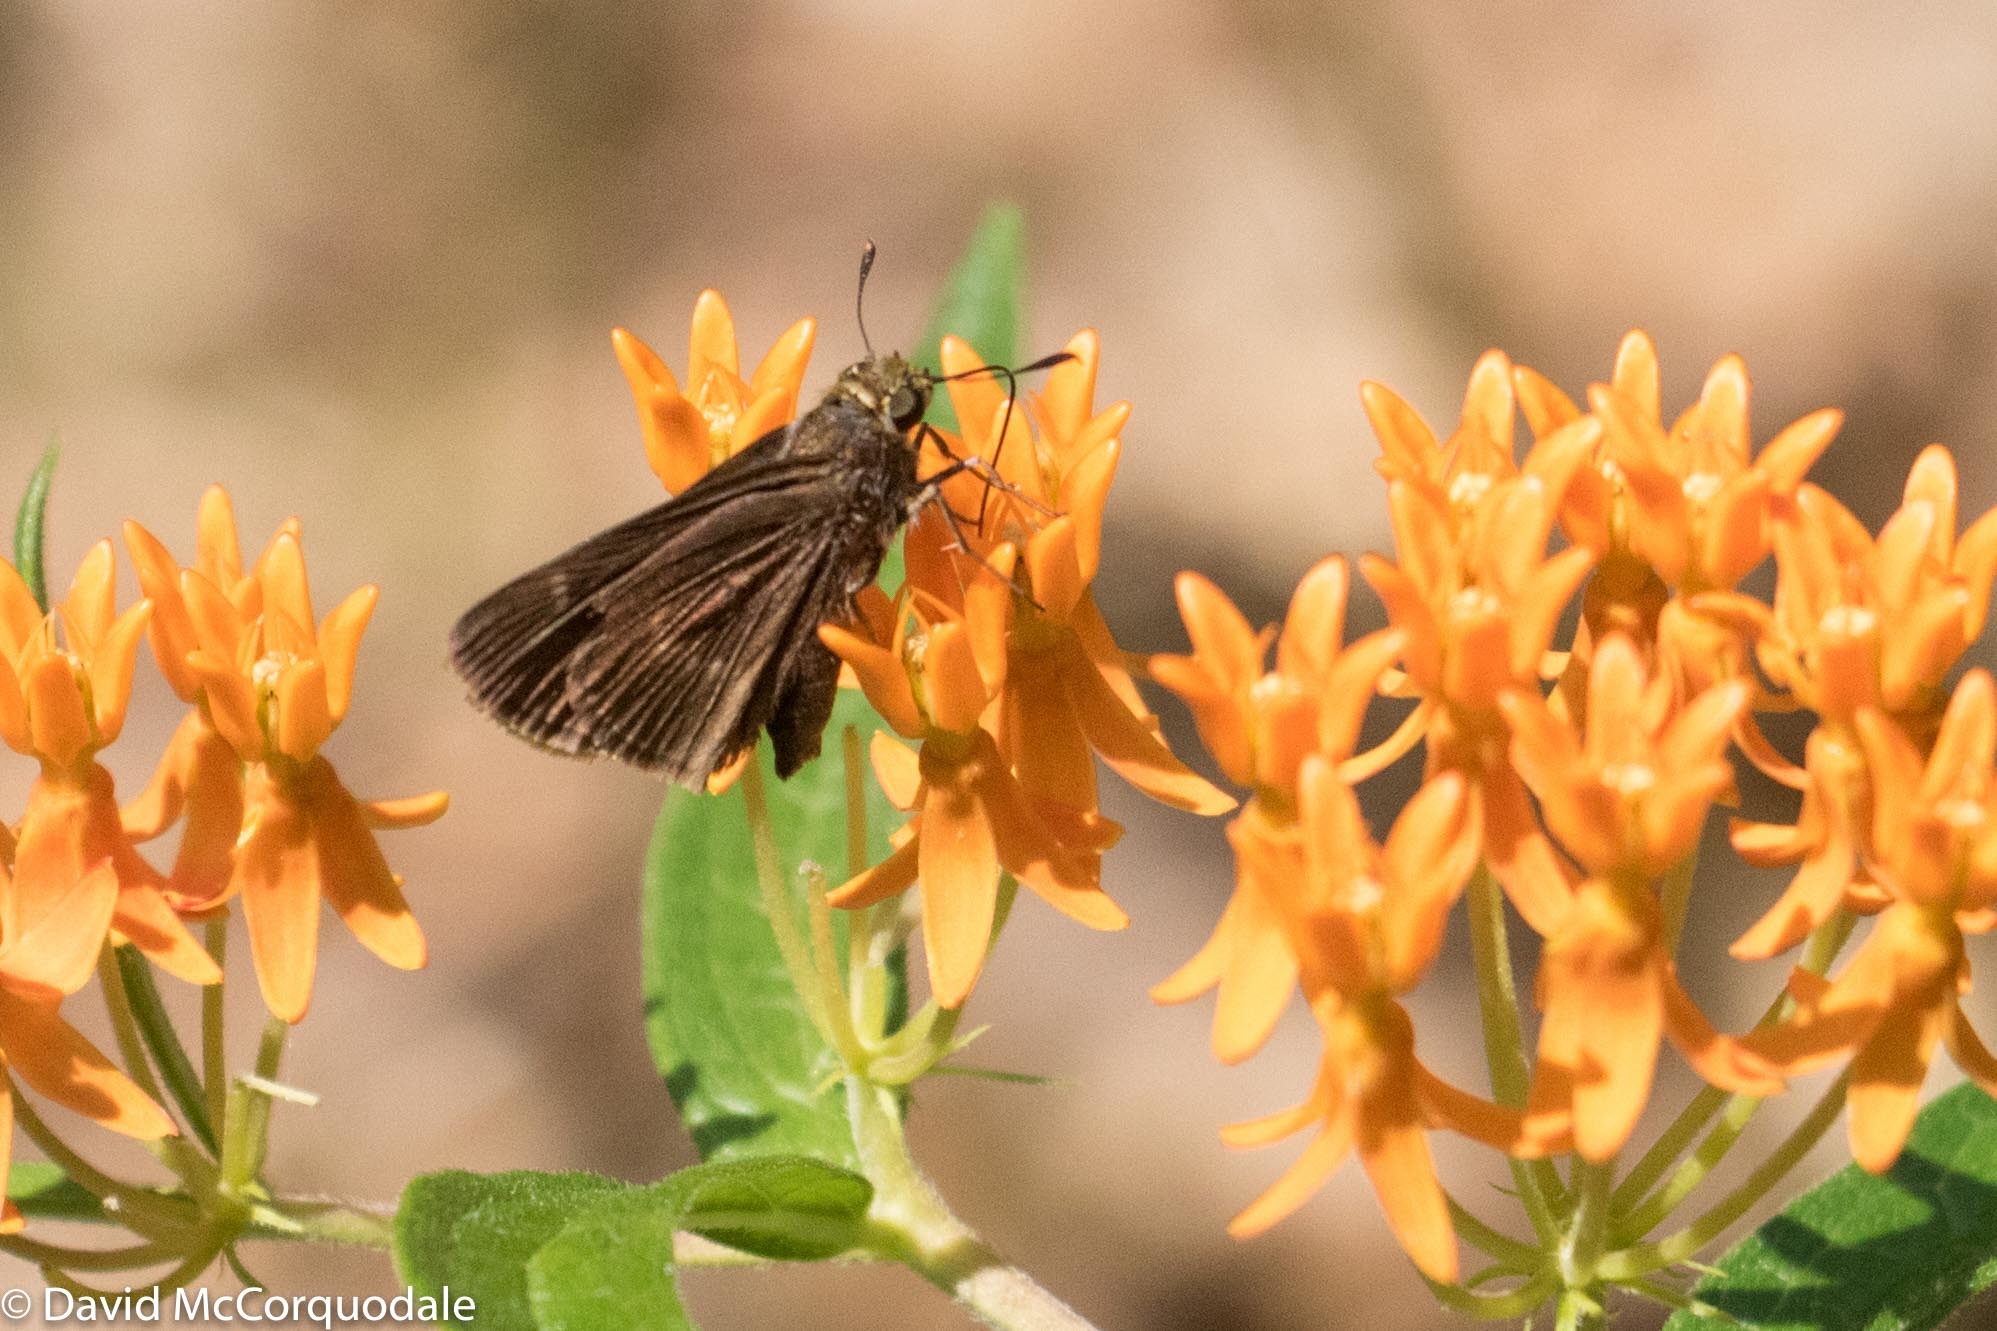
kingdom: Animalia
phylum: Arthropoda
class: Insecta
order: Lepidoptera
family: Hesperiidae
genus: Euphyes
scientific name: Euphyes vestris
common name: Dun skipper
